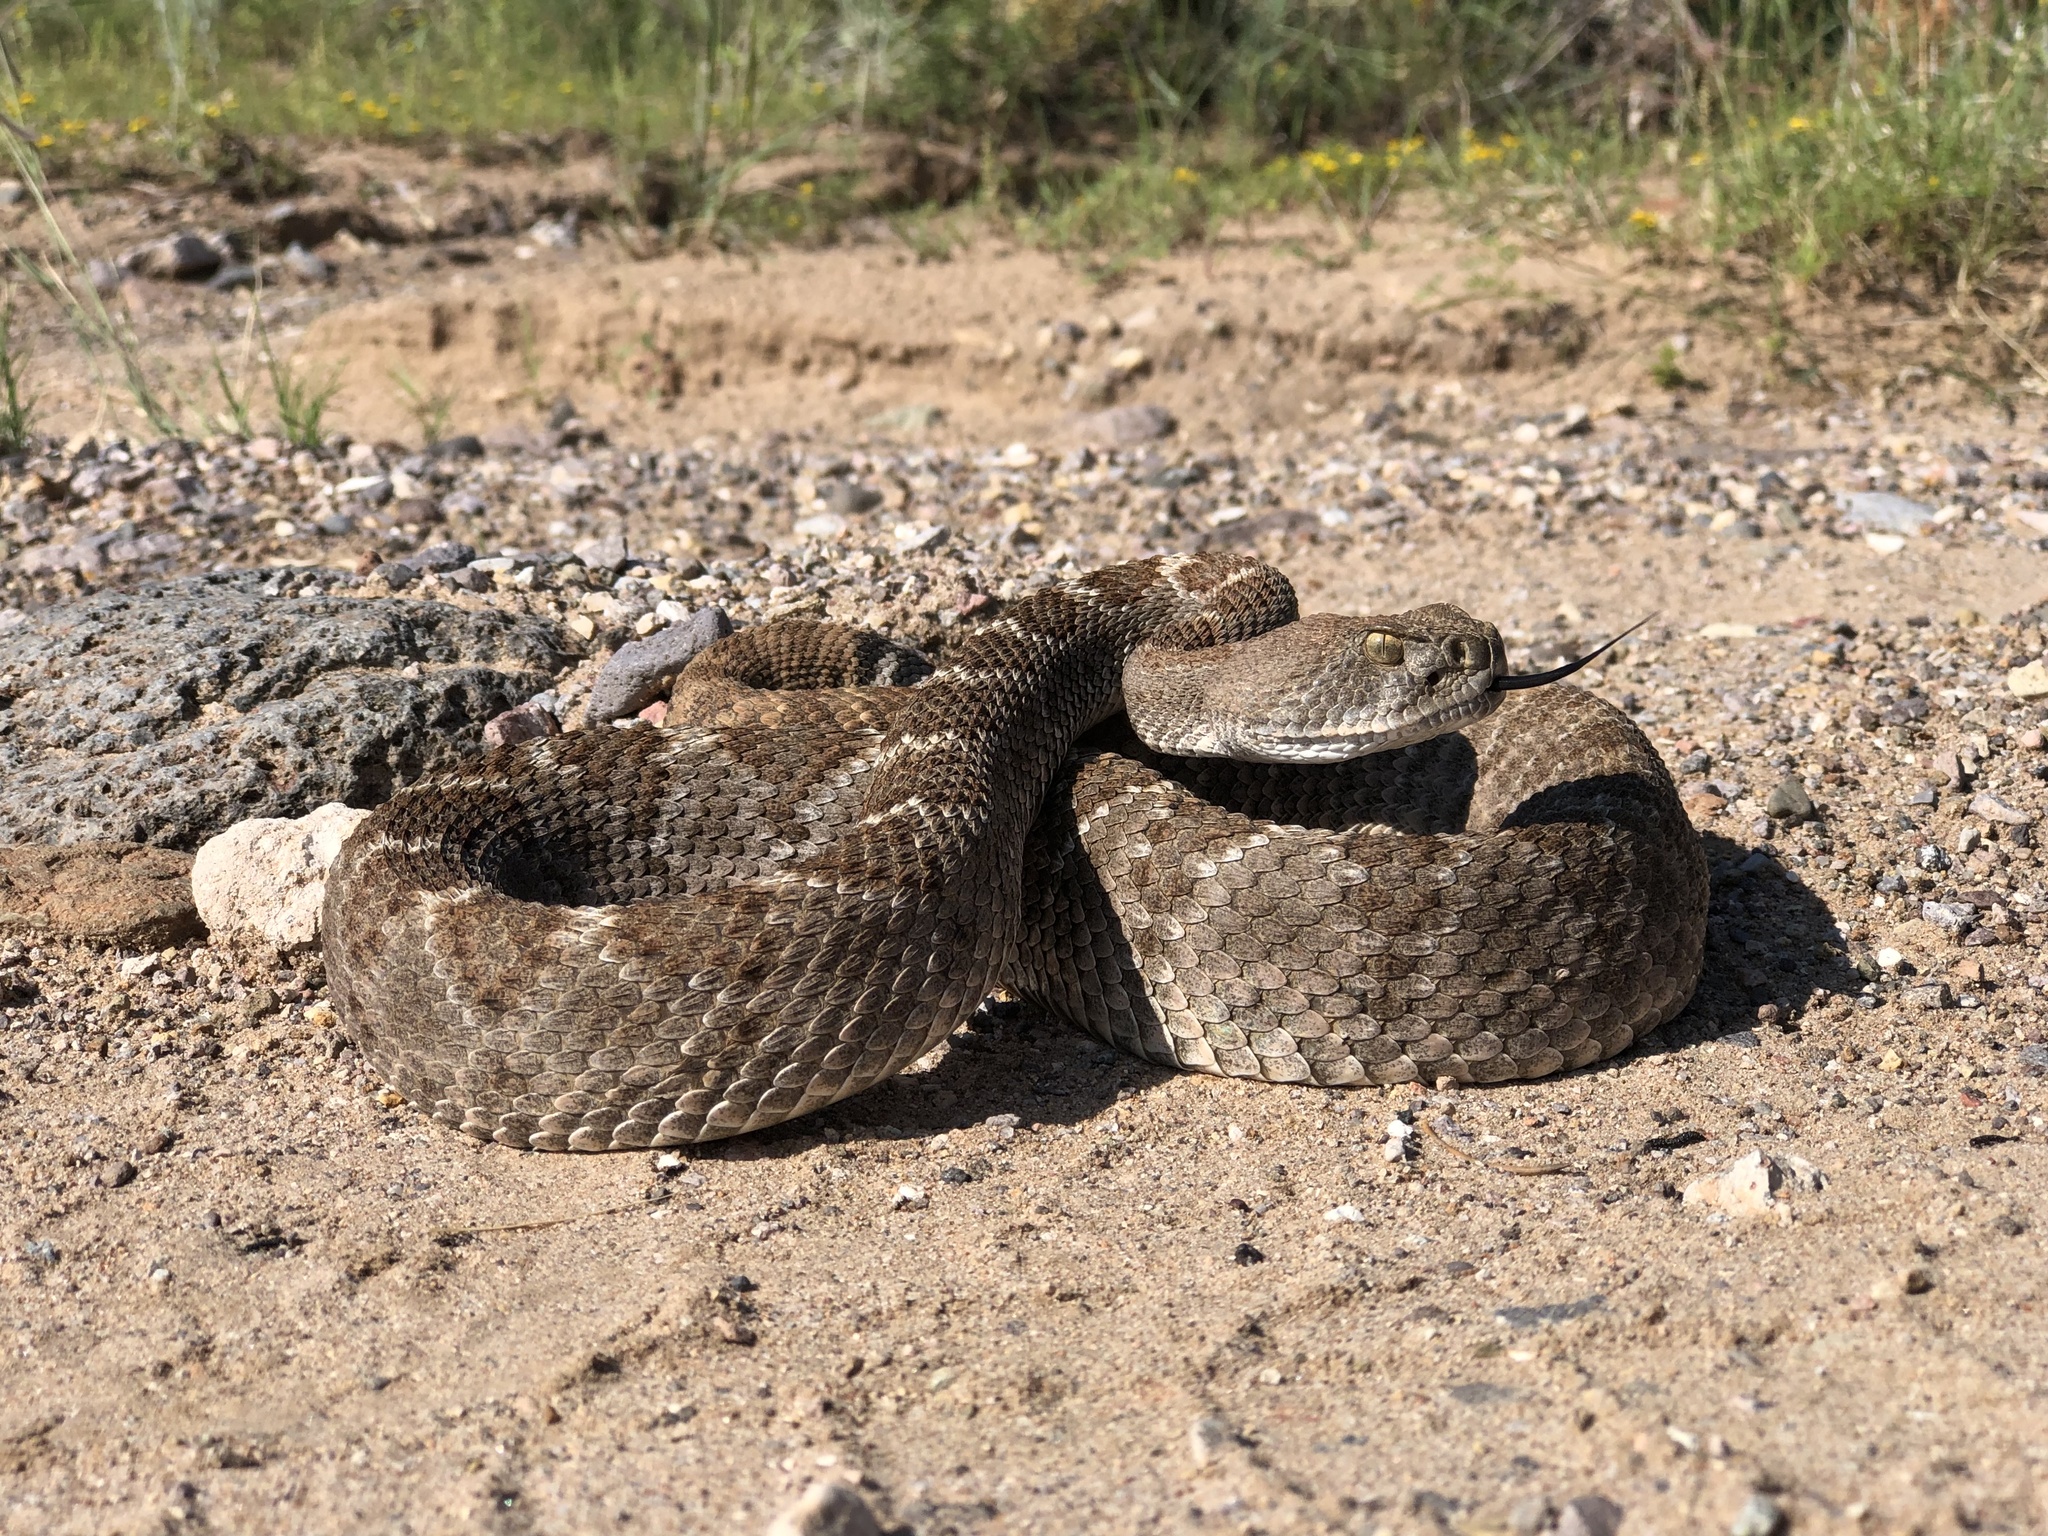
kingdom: Animalia
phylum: Chordata
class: Squamata
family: Viperidae
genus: Crotalus
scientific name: Crotalus atrox
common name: Western diamond-backed rattlesnake
